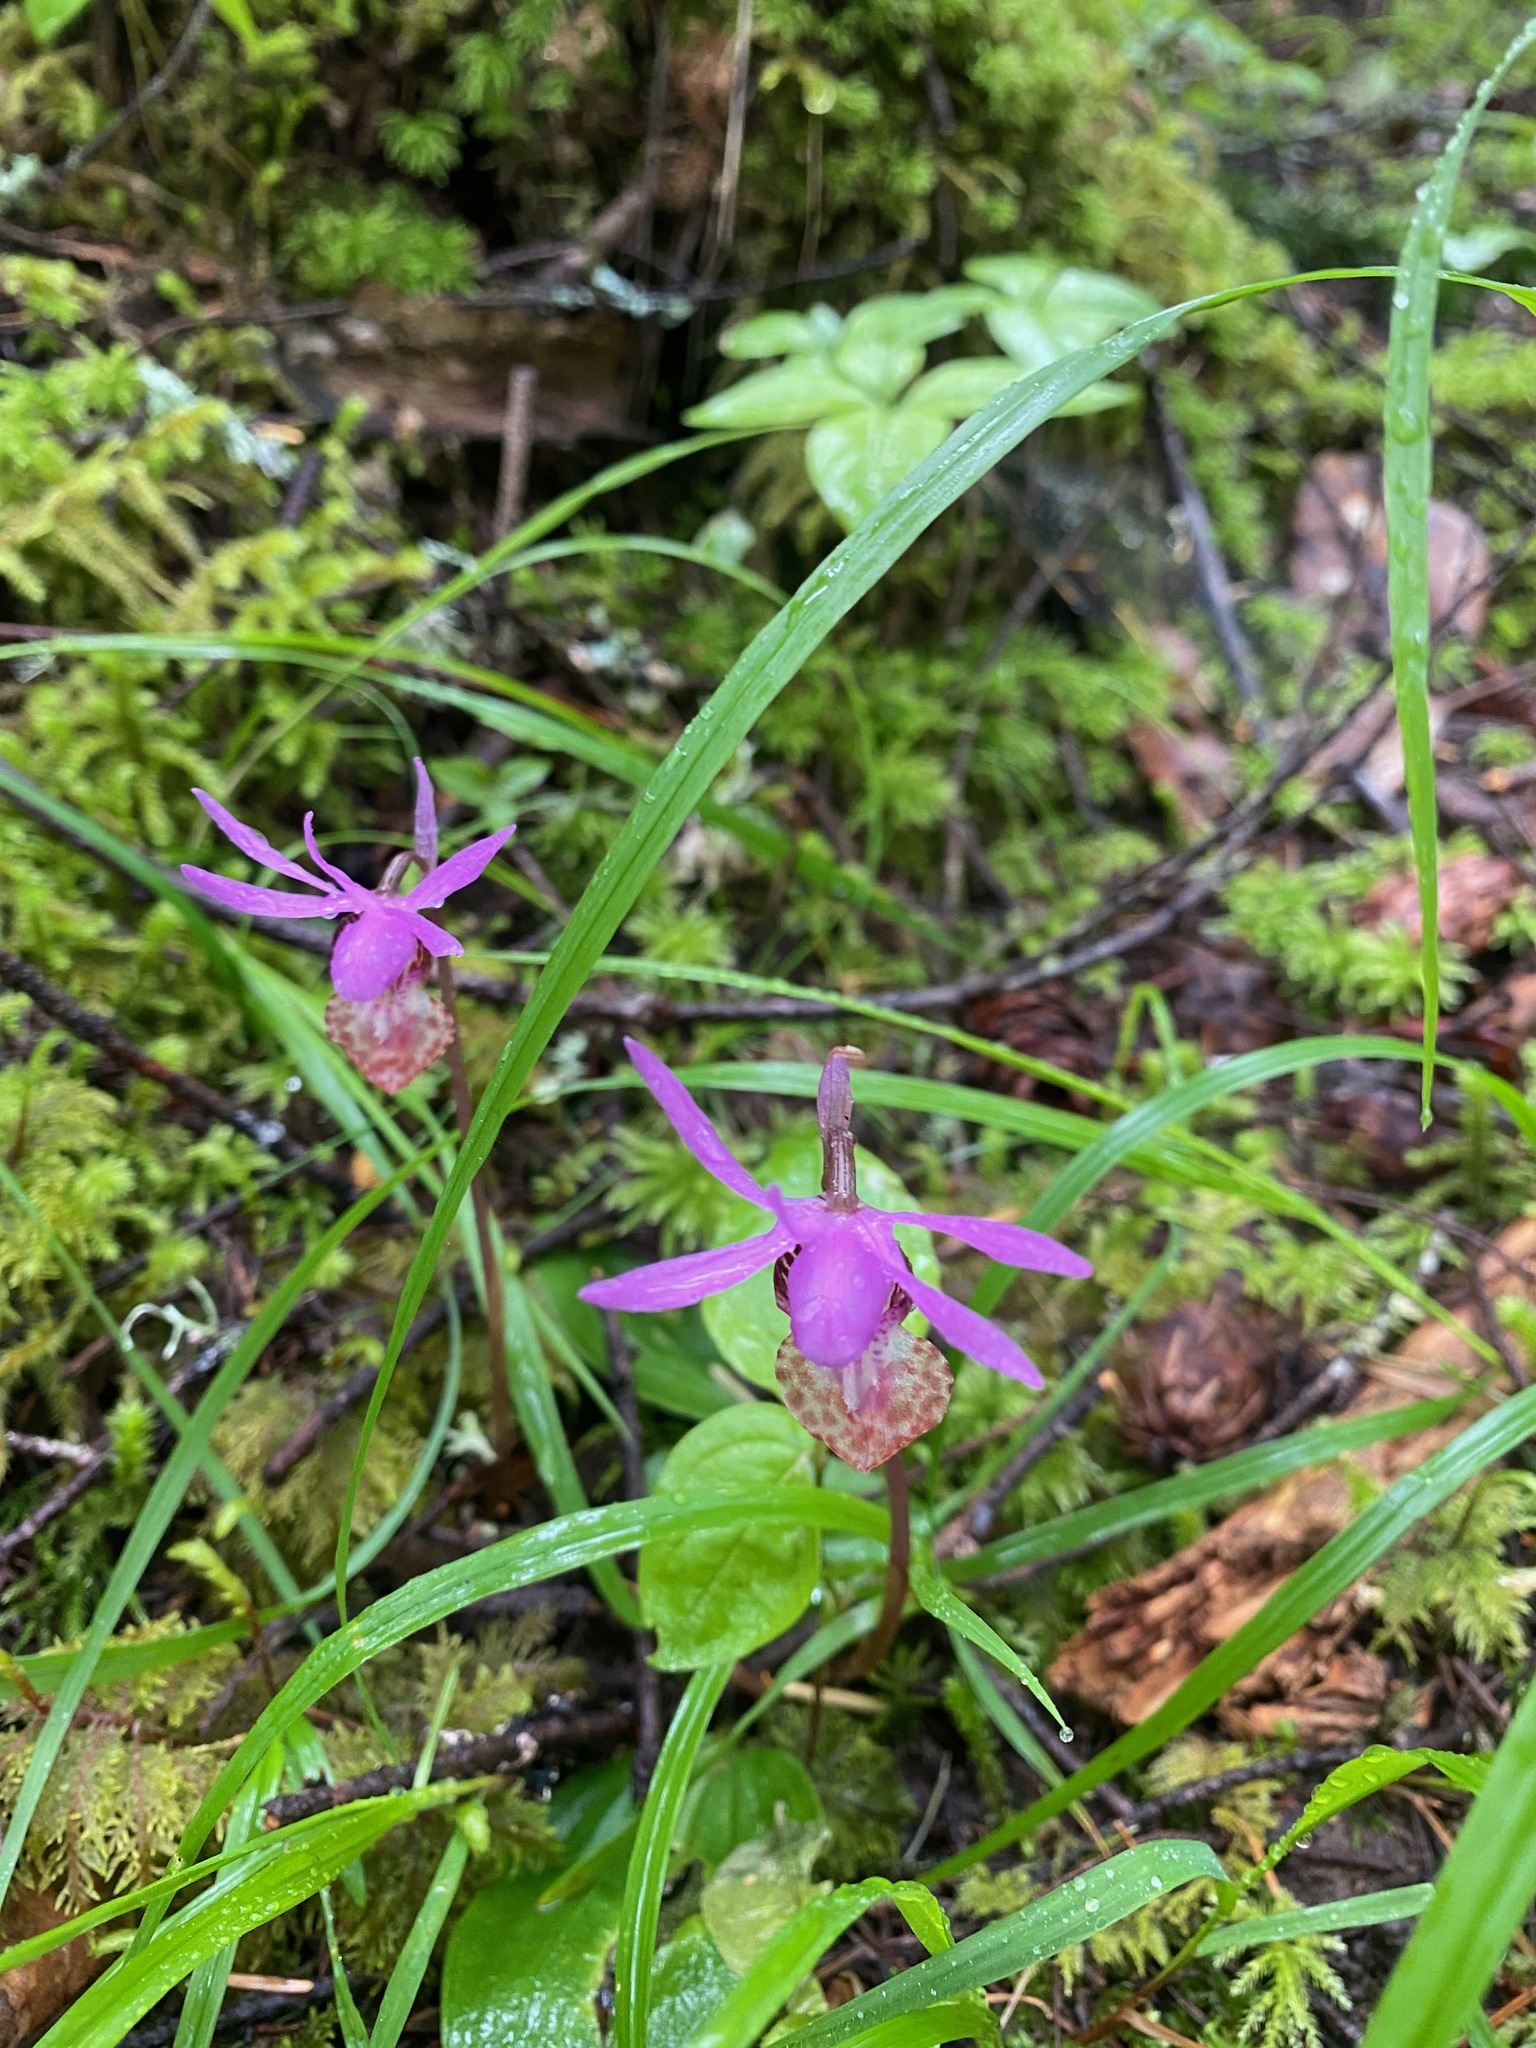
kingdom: Plantae
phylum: Tracheophyta
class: Liliopsida
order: Asparagales
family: Orchidaceae
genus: Calypso
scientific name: Calypso bulbosa
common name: Calypso
